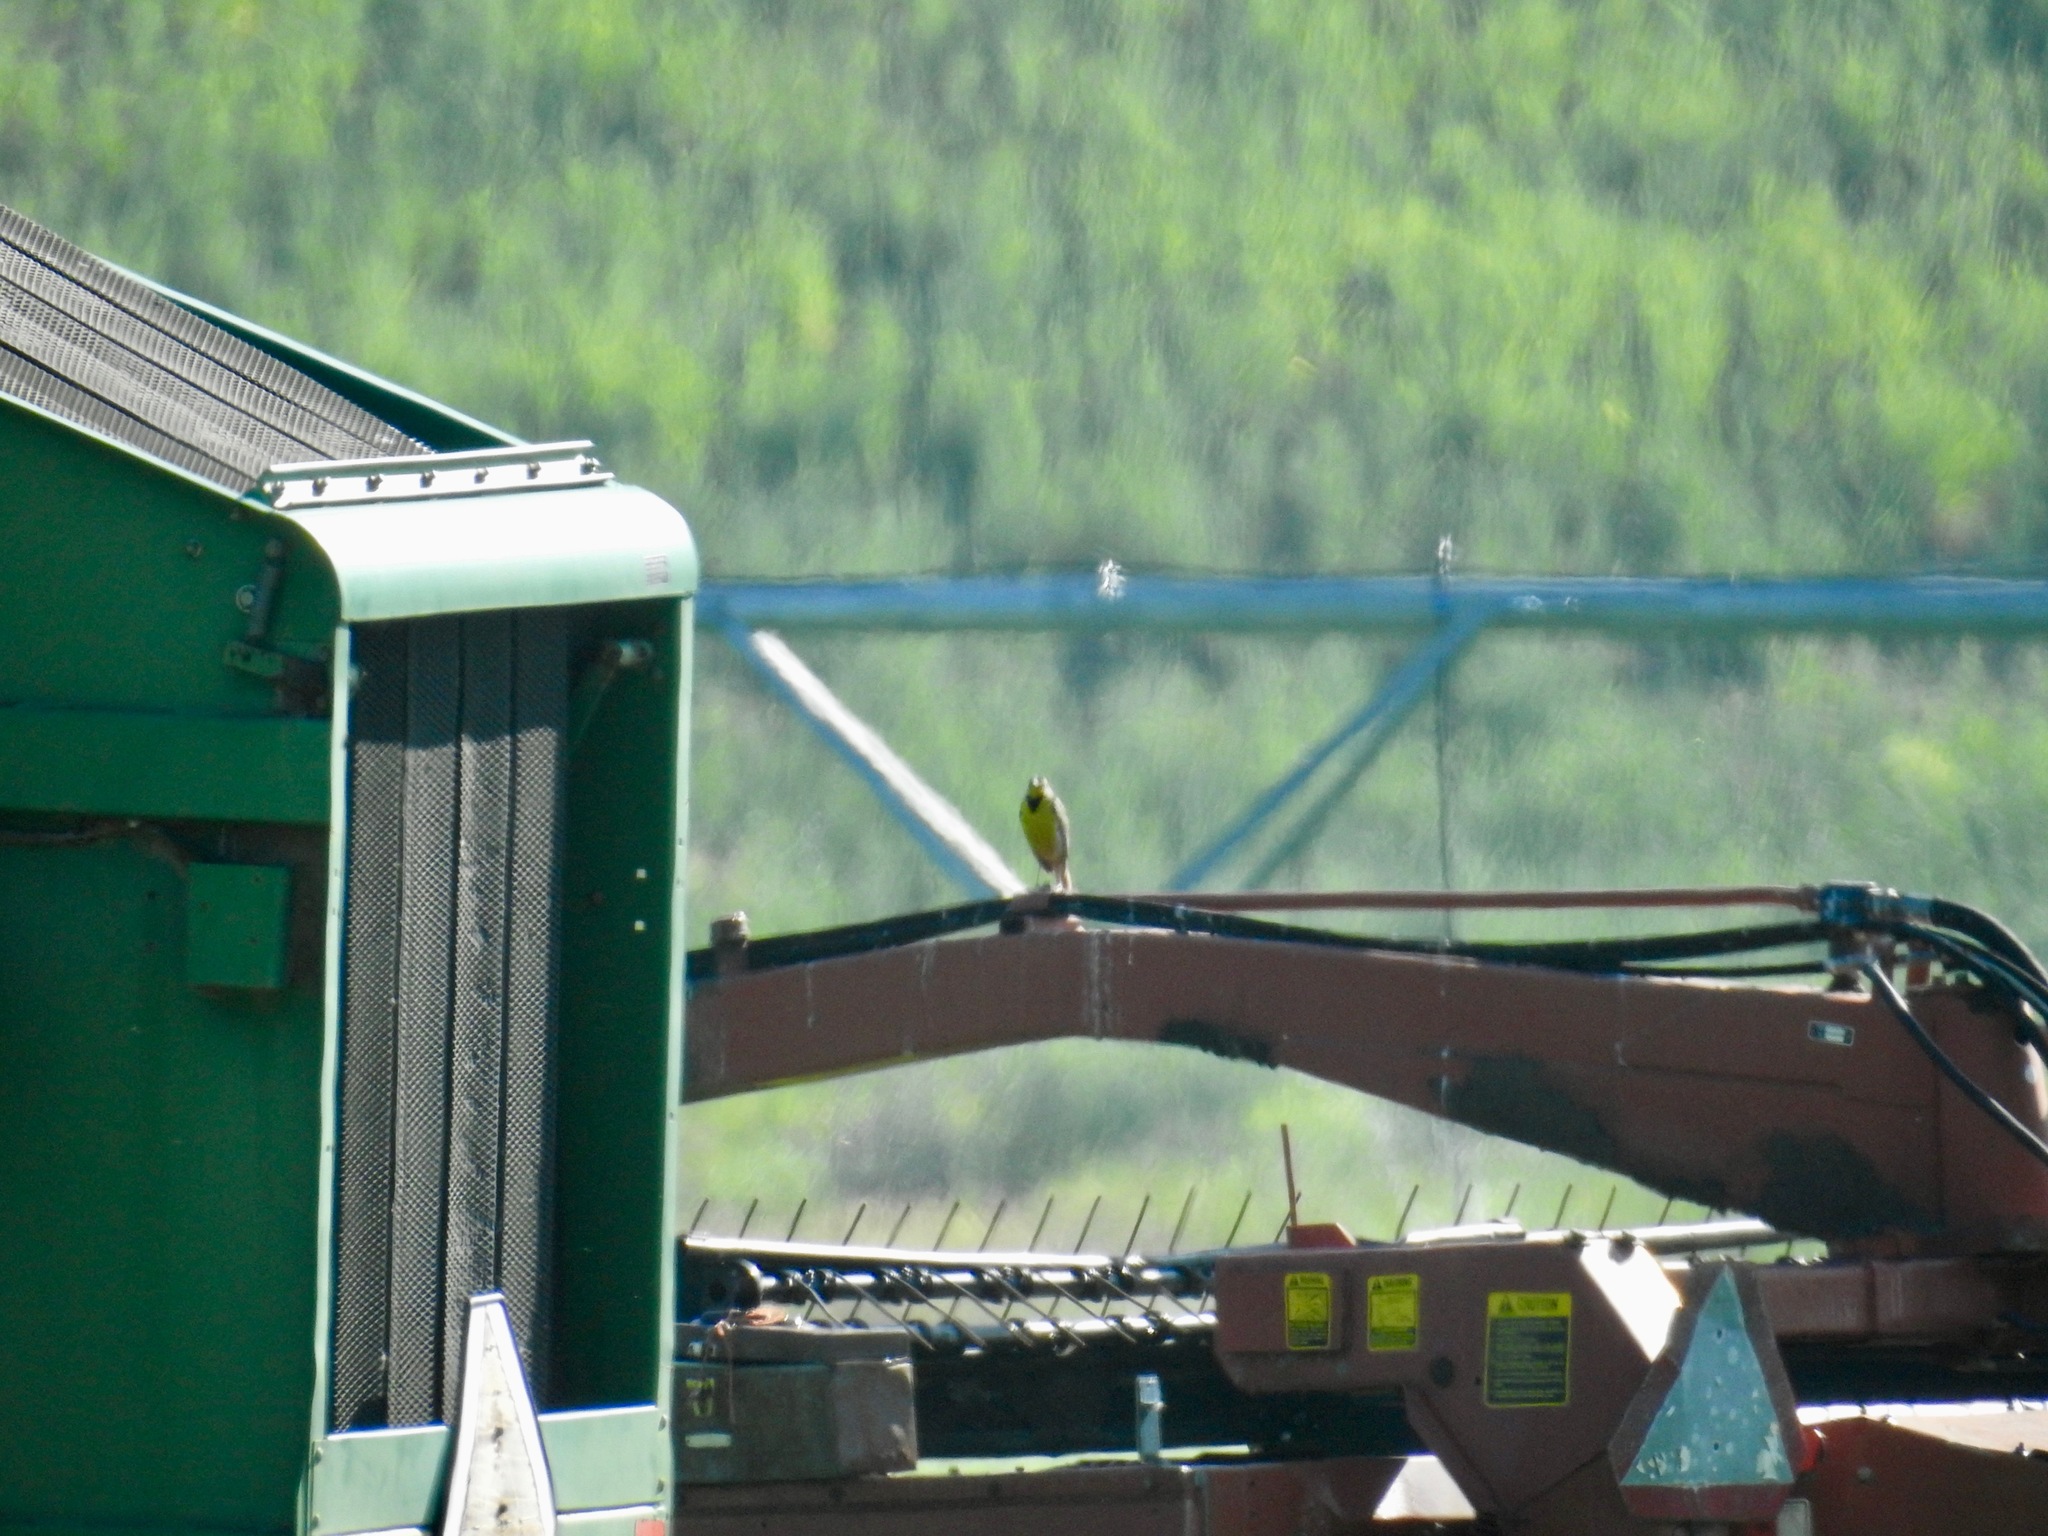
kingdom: Animalia
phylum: Chordata
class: Aves
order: Passeriformes
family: Icteridae
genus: Sturnella
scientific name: Sturnella neglecta
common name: Western meadowlark
